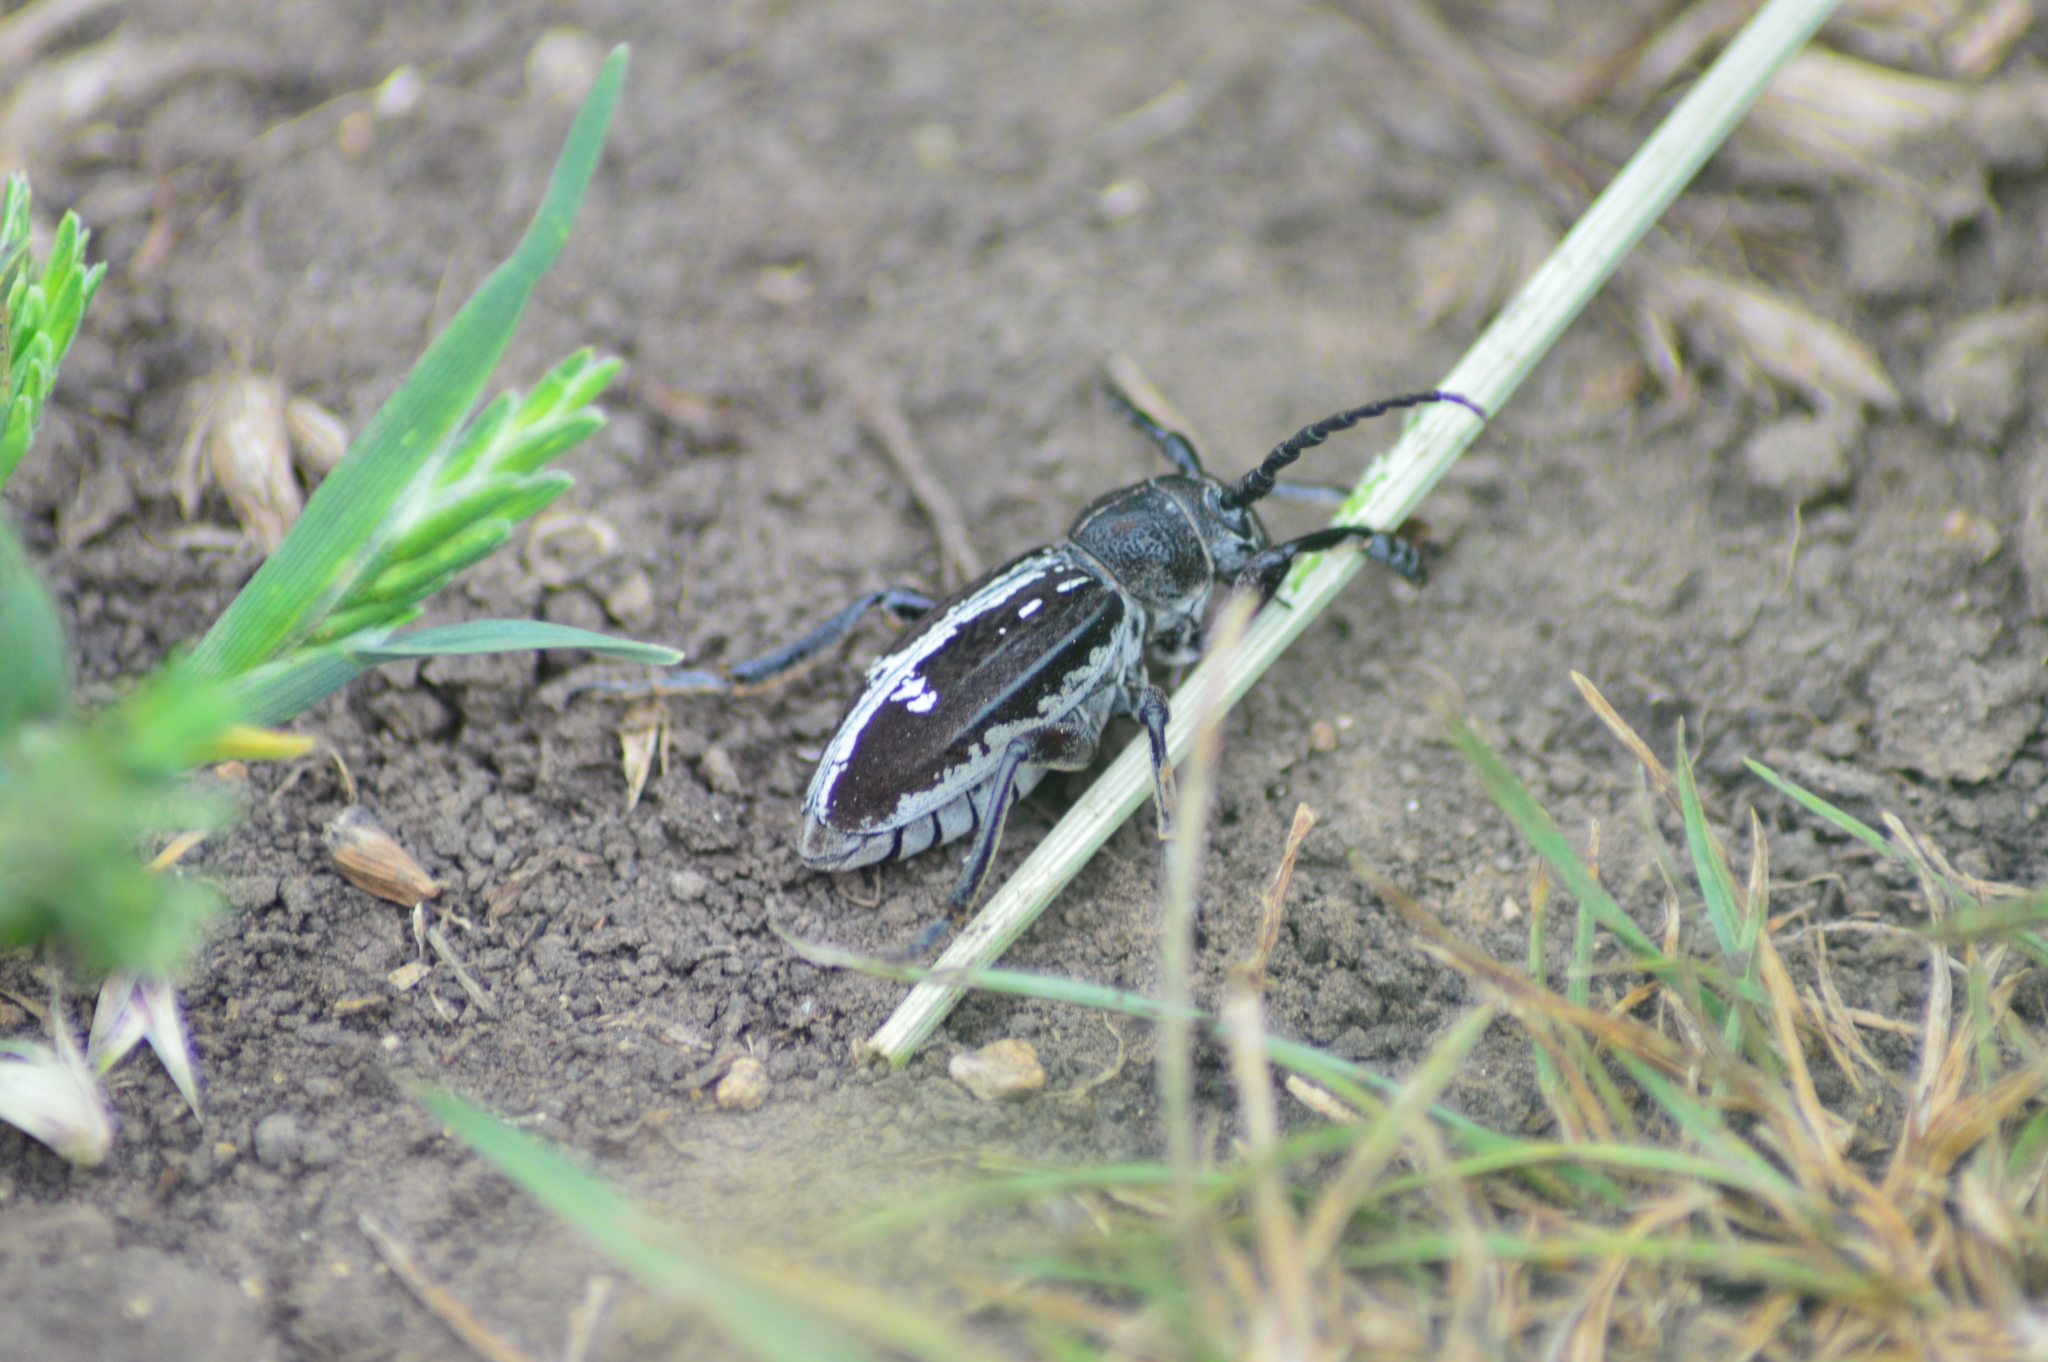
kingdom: Animalia
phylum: Arthropoda
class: Insecta
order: Coleoptera
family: Cerambycidae
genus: Dorcadion
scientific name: Dorcadion equestre
